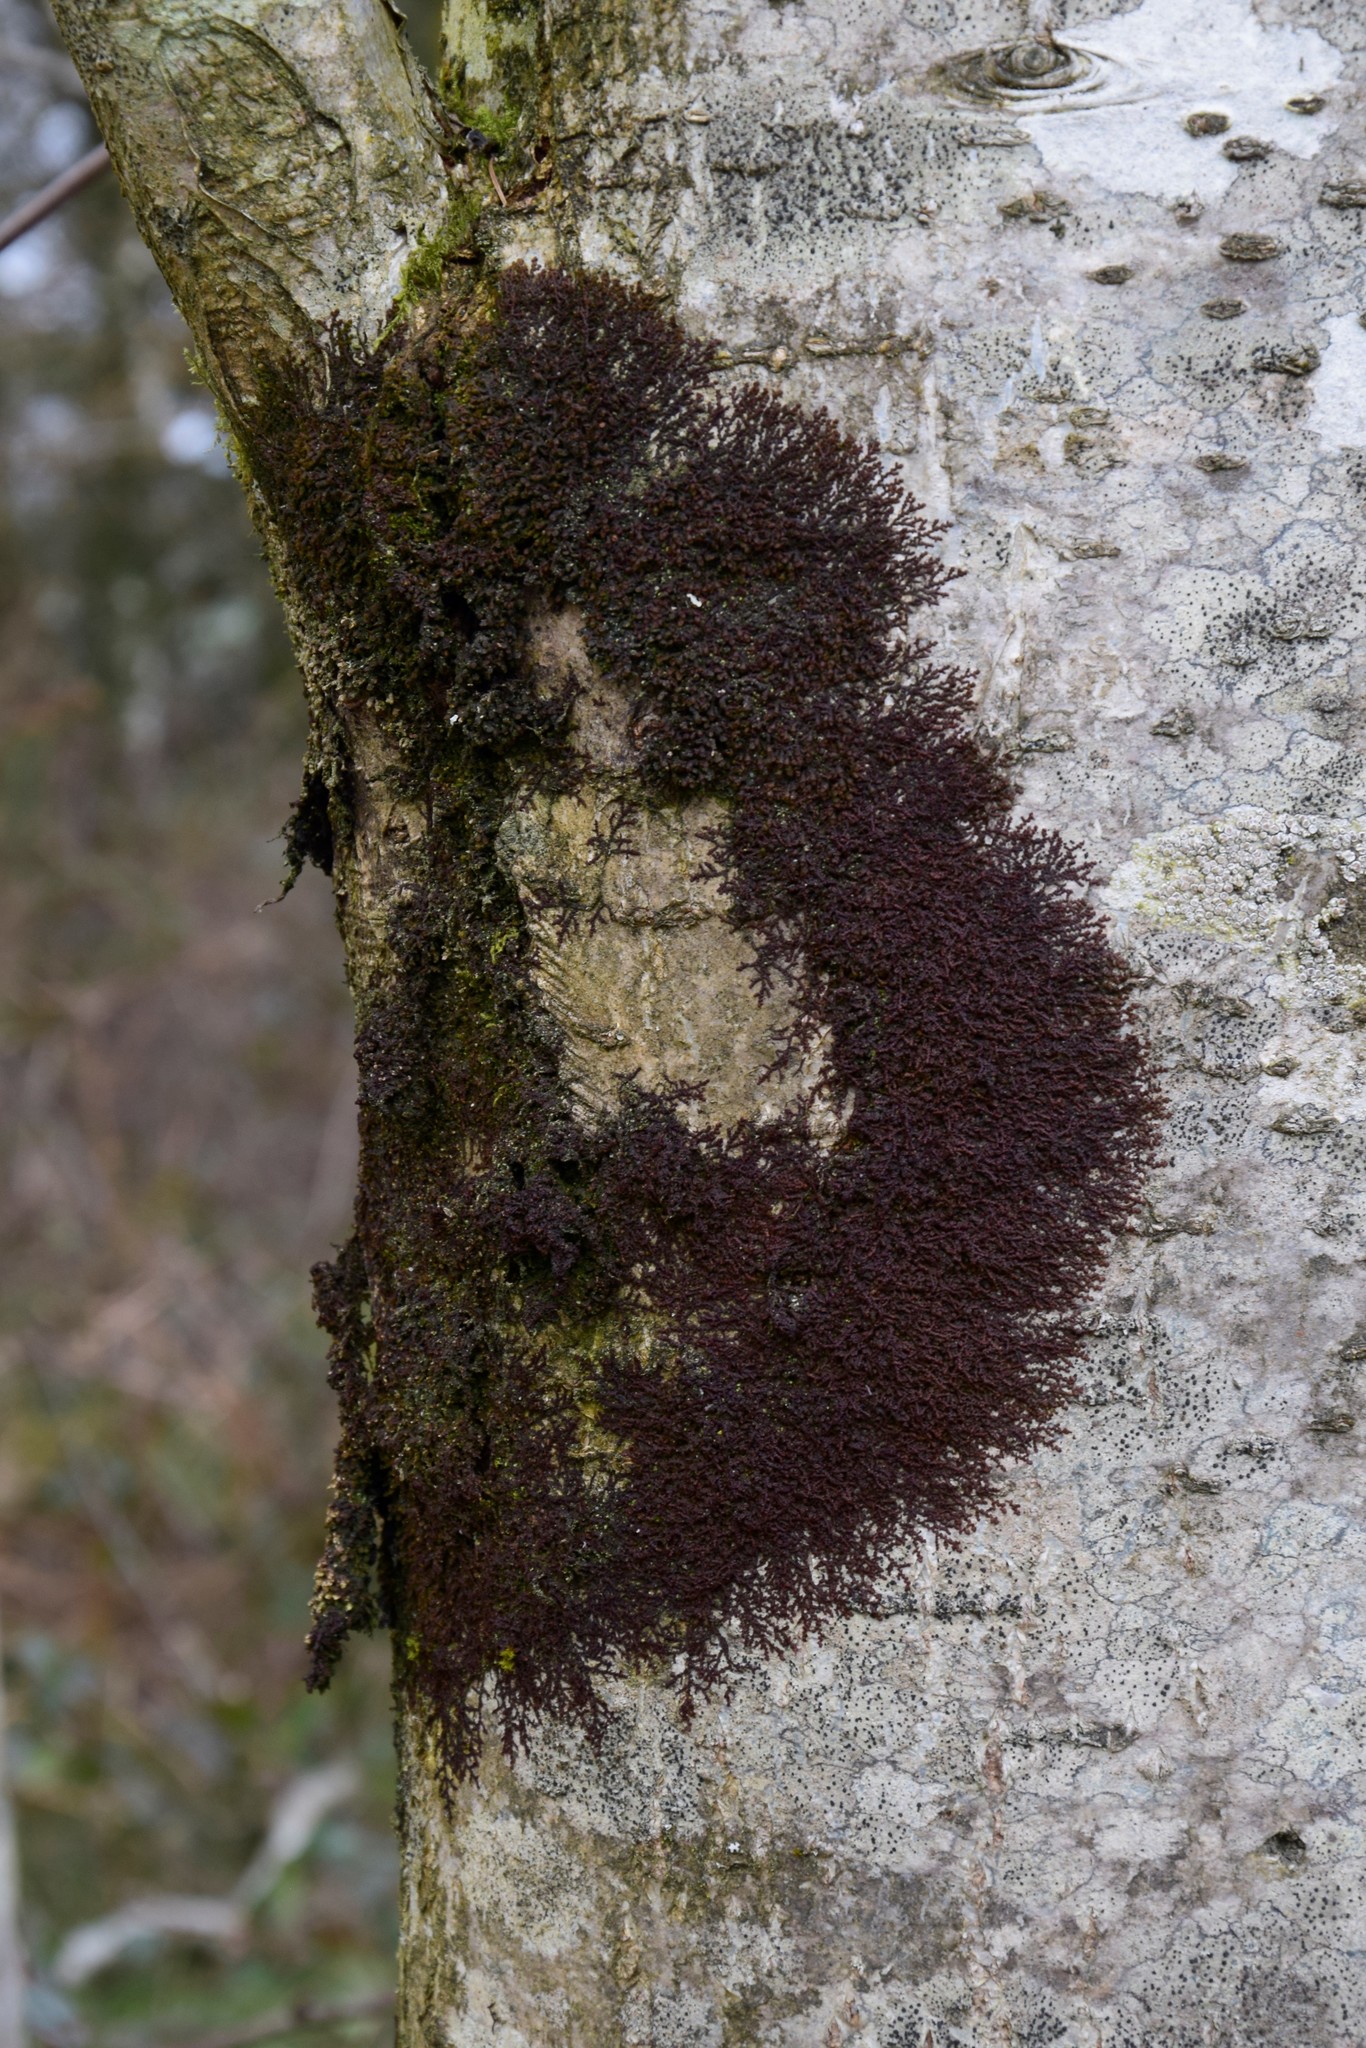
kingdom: Plantae
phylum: Marchantiophyta
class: Jungermanniopsida
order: Porellales
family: Frullaniaceae
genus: Frullania
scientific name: Frullania dilatata
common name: Dilated scalewort
